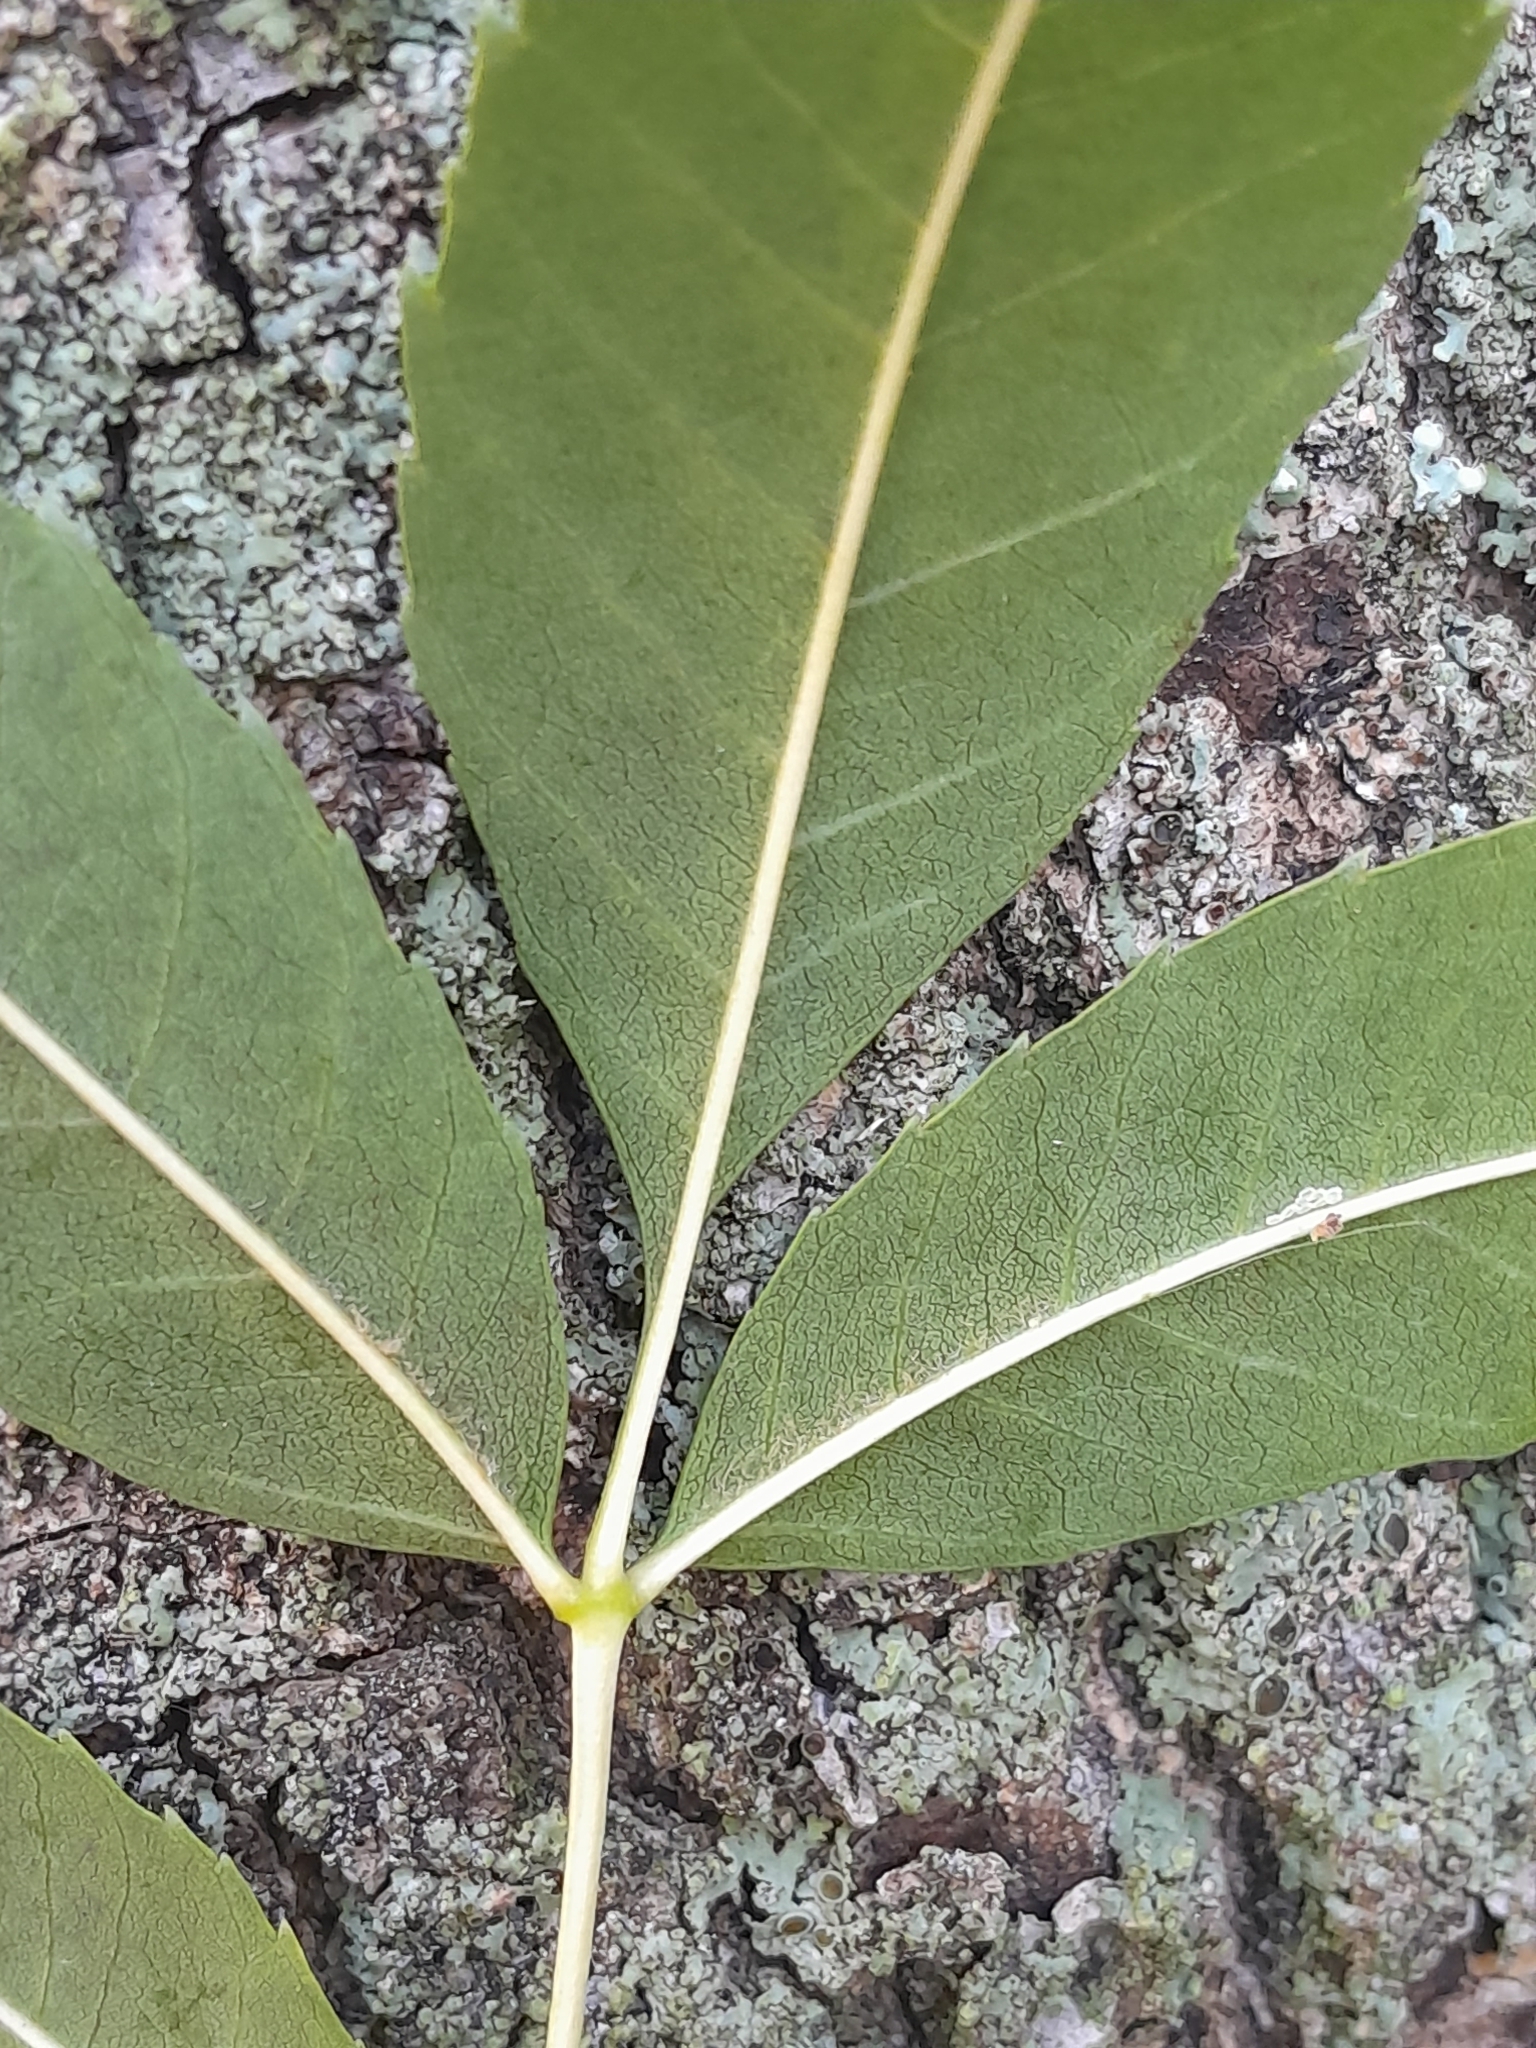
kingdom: Plantae
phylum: Tracheophyta
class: Magnoliopsida
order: Lamiales
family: Oleaceae
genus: Fraxinus
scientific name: Fraxinus angustifolia
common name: Narrow-leafed ash
